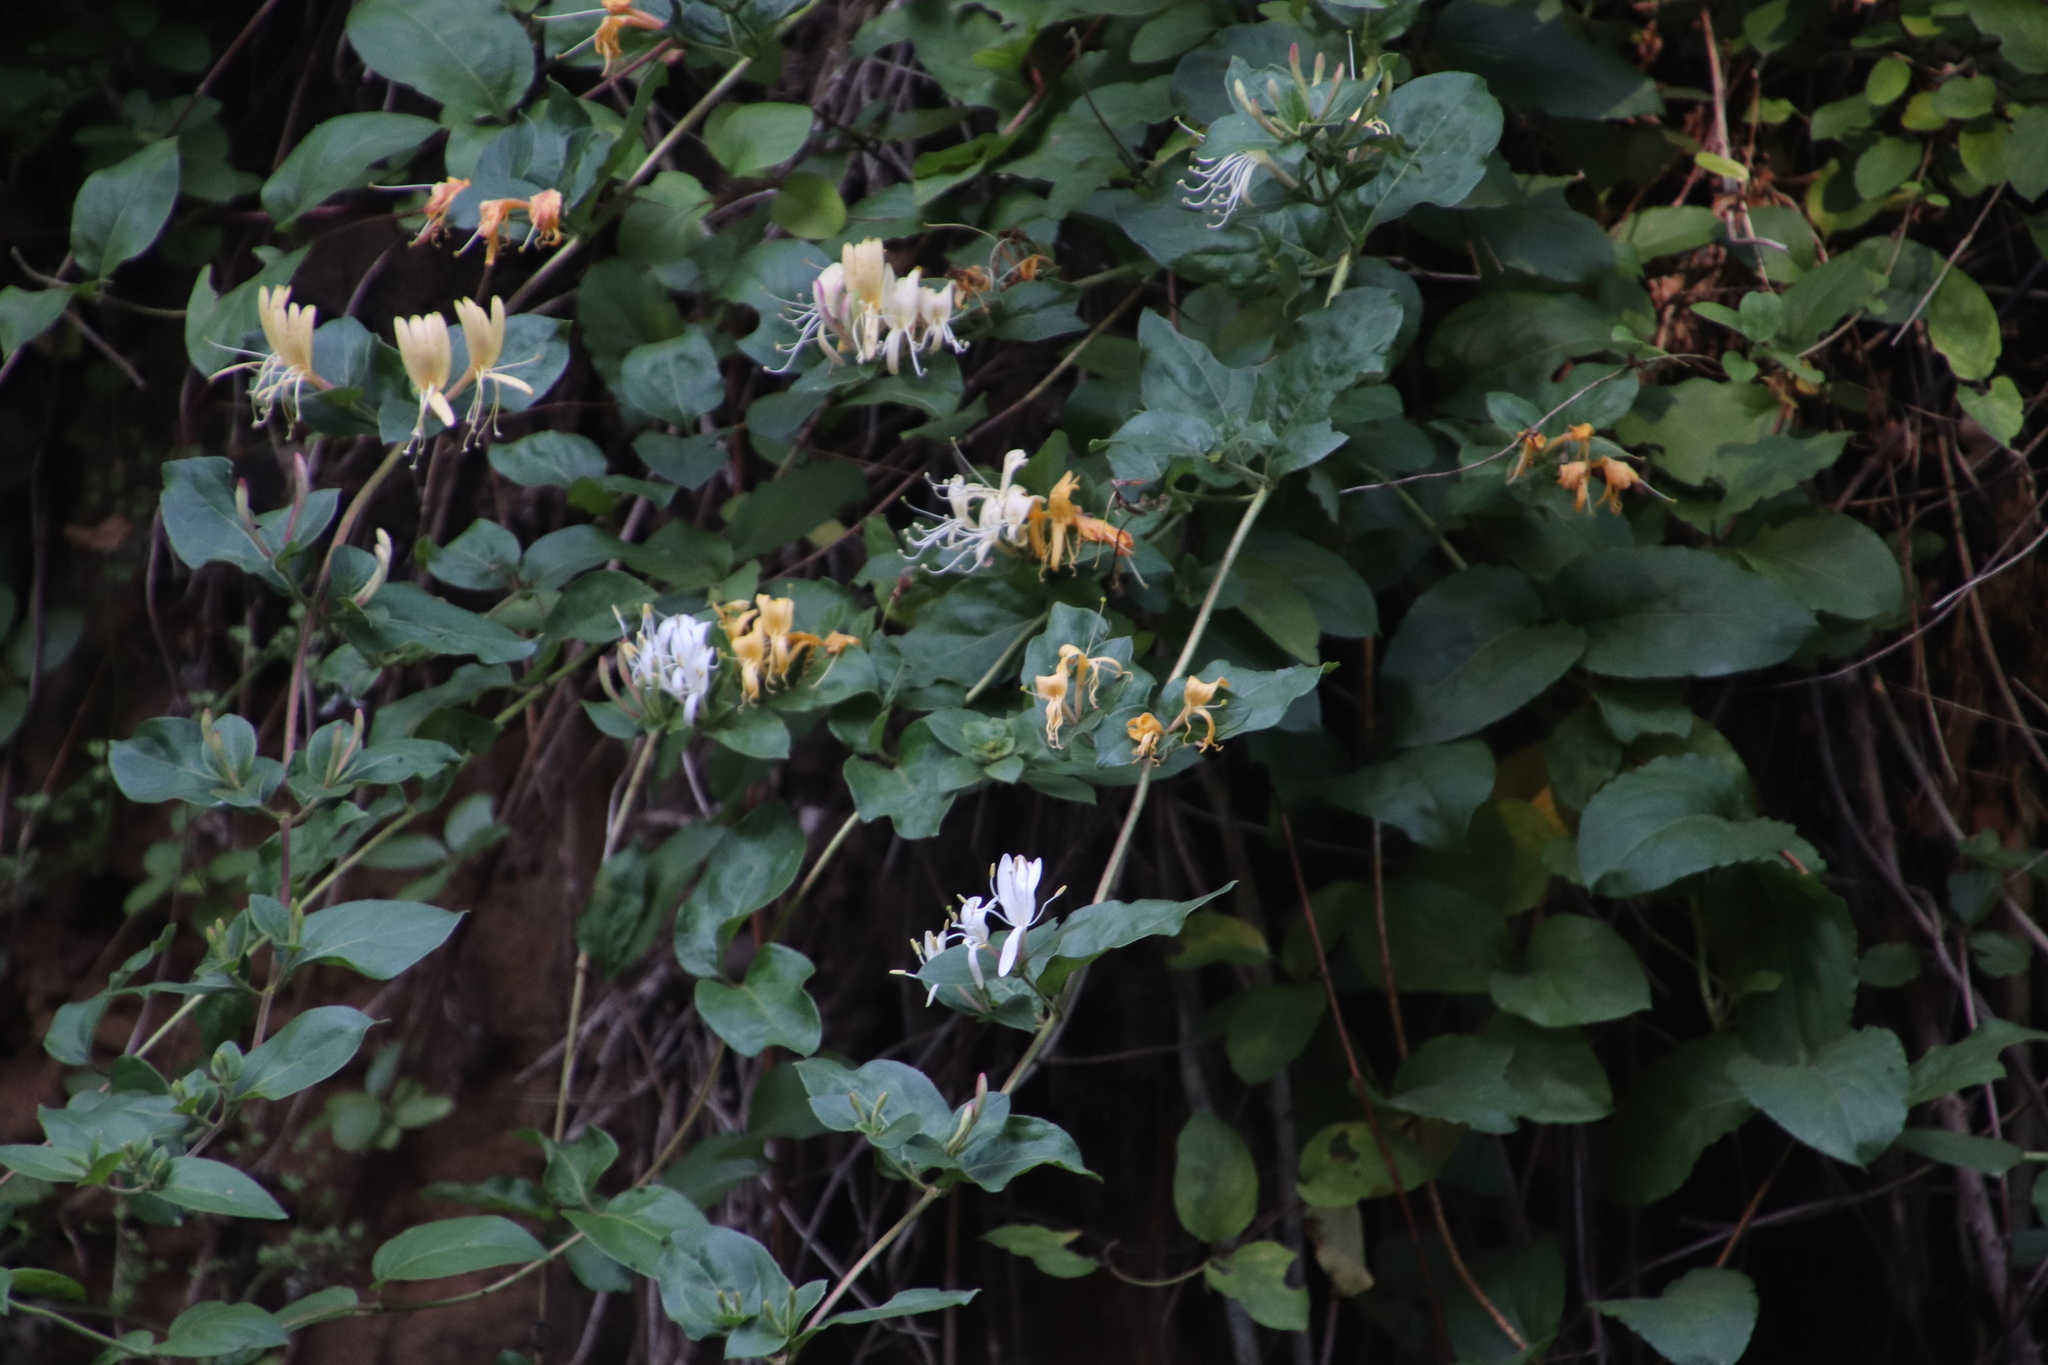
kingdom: Plantae
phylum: Tracheophyta
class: Magnoliopsida
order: Dipsacales
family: Caprifoliaceae
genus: Lonicera
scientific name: Lonicera japonica
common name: Japanese honeysuckle
